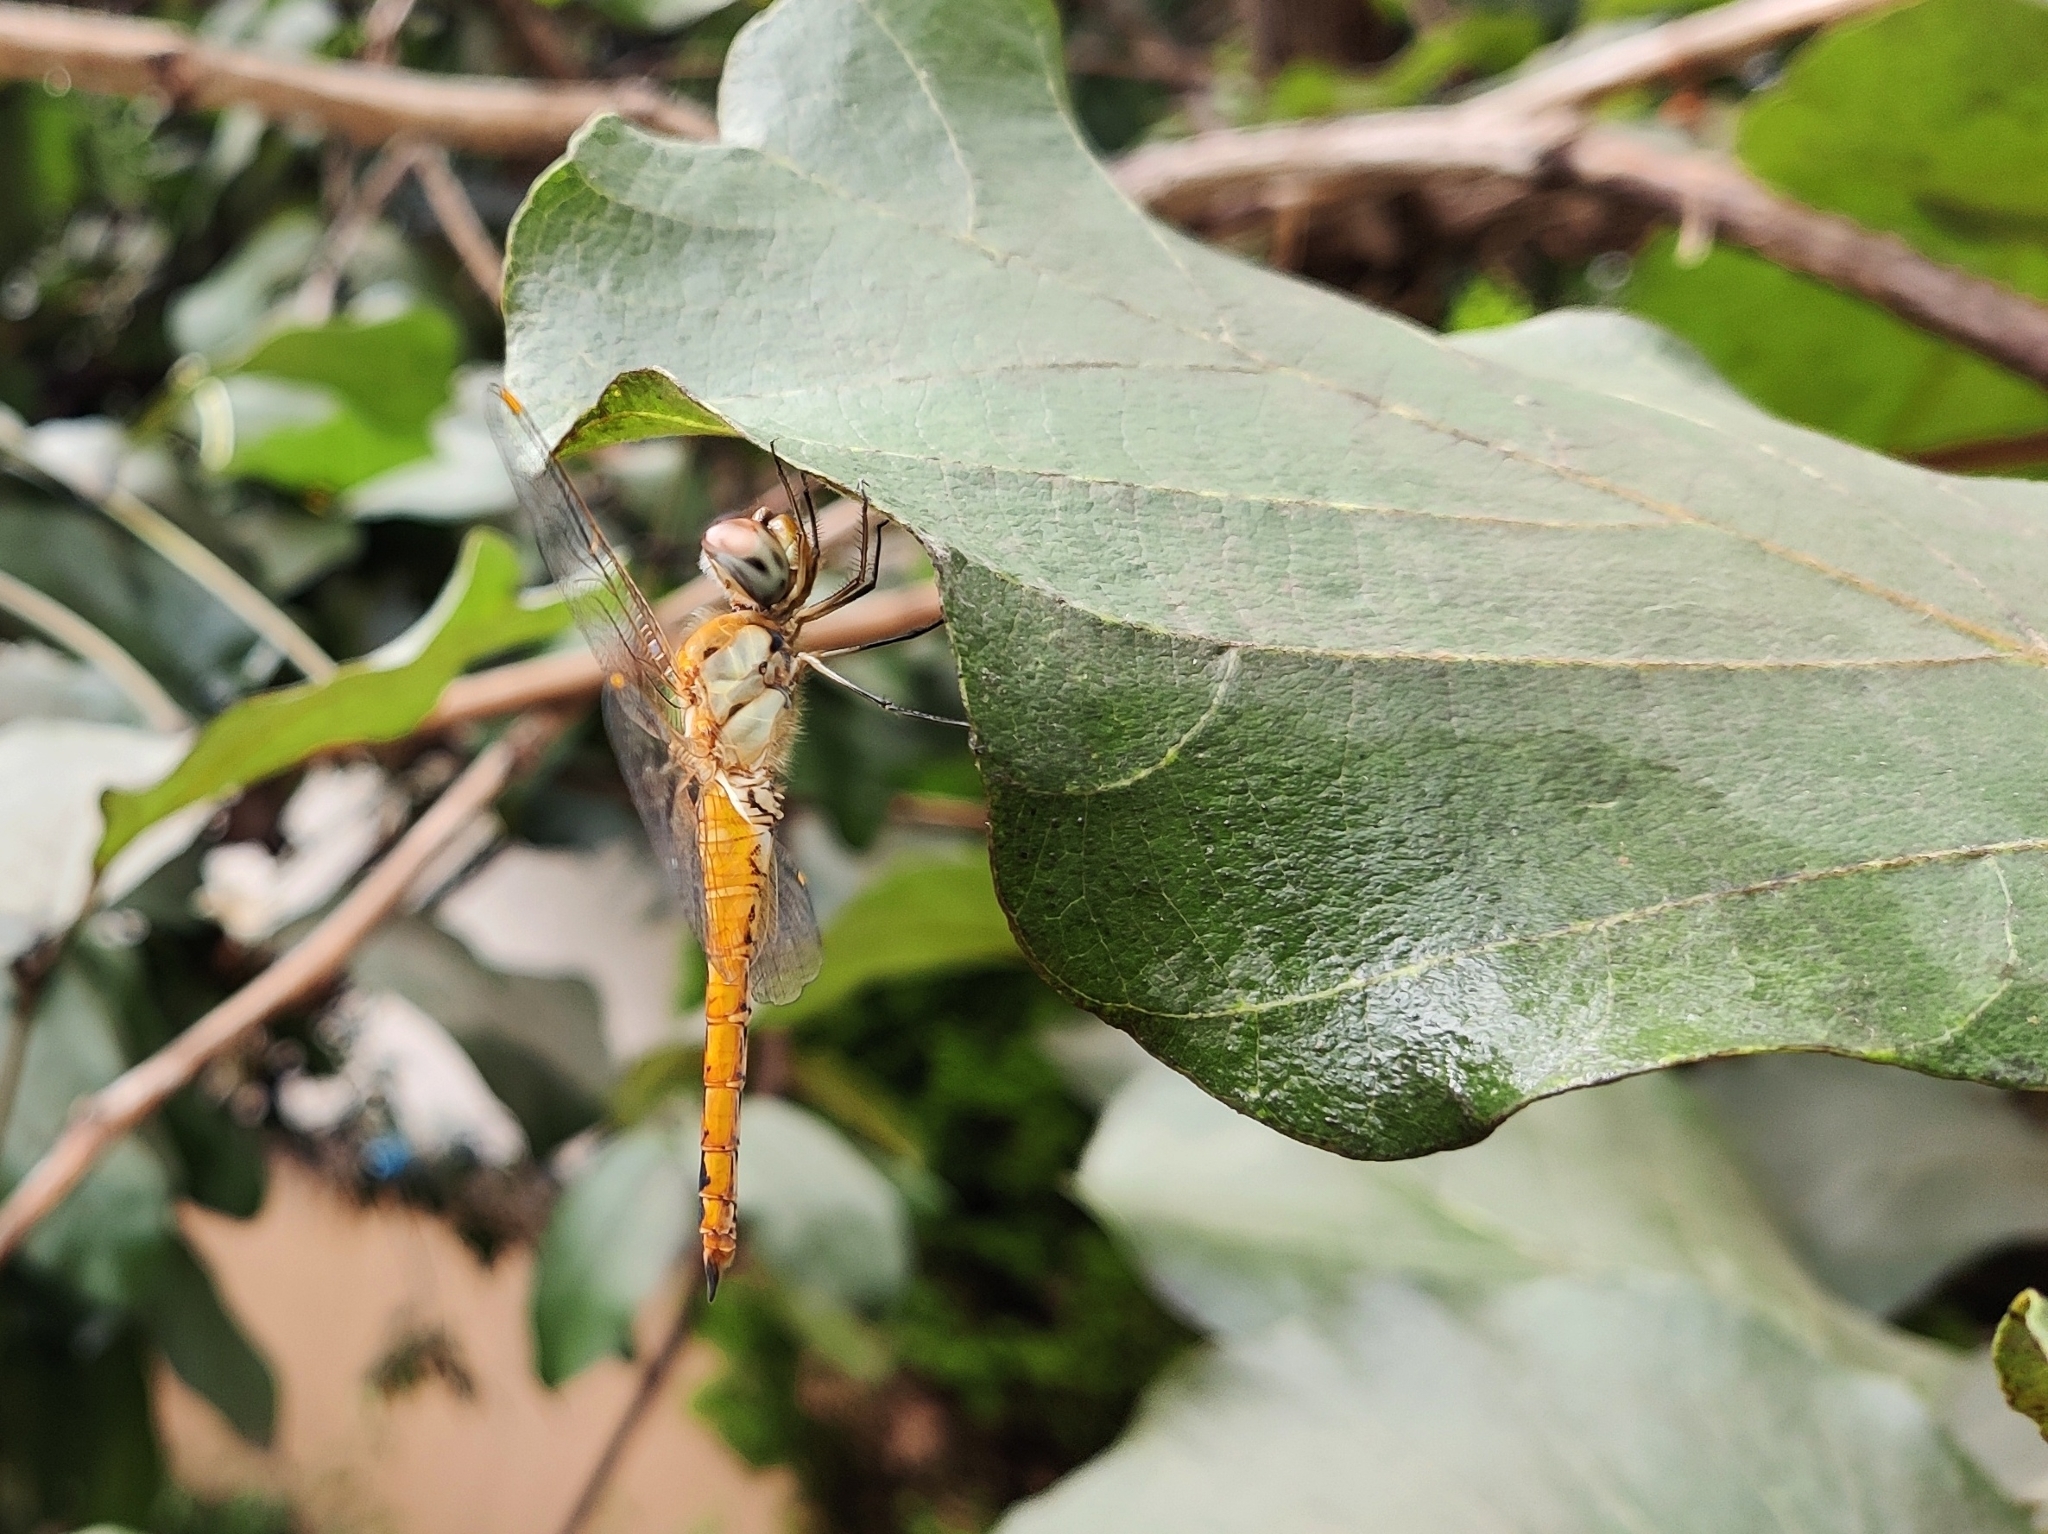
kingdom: Animalia
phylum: Arthropoda
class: Insecta
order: Odonata
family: Libellulidae
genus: Pantala
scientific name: Pantala flavescens
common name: Wandering glider
